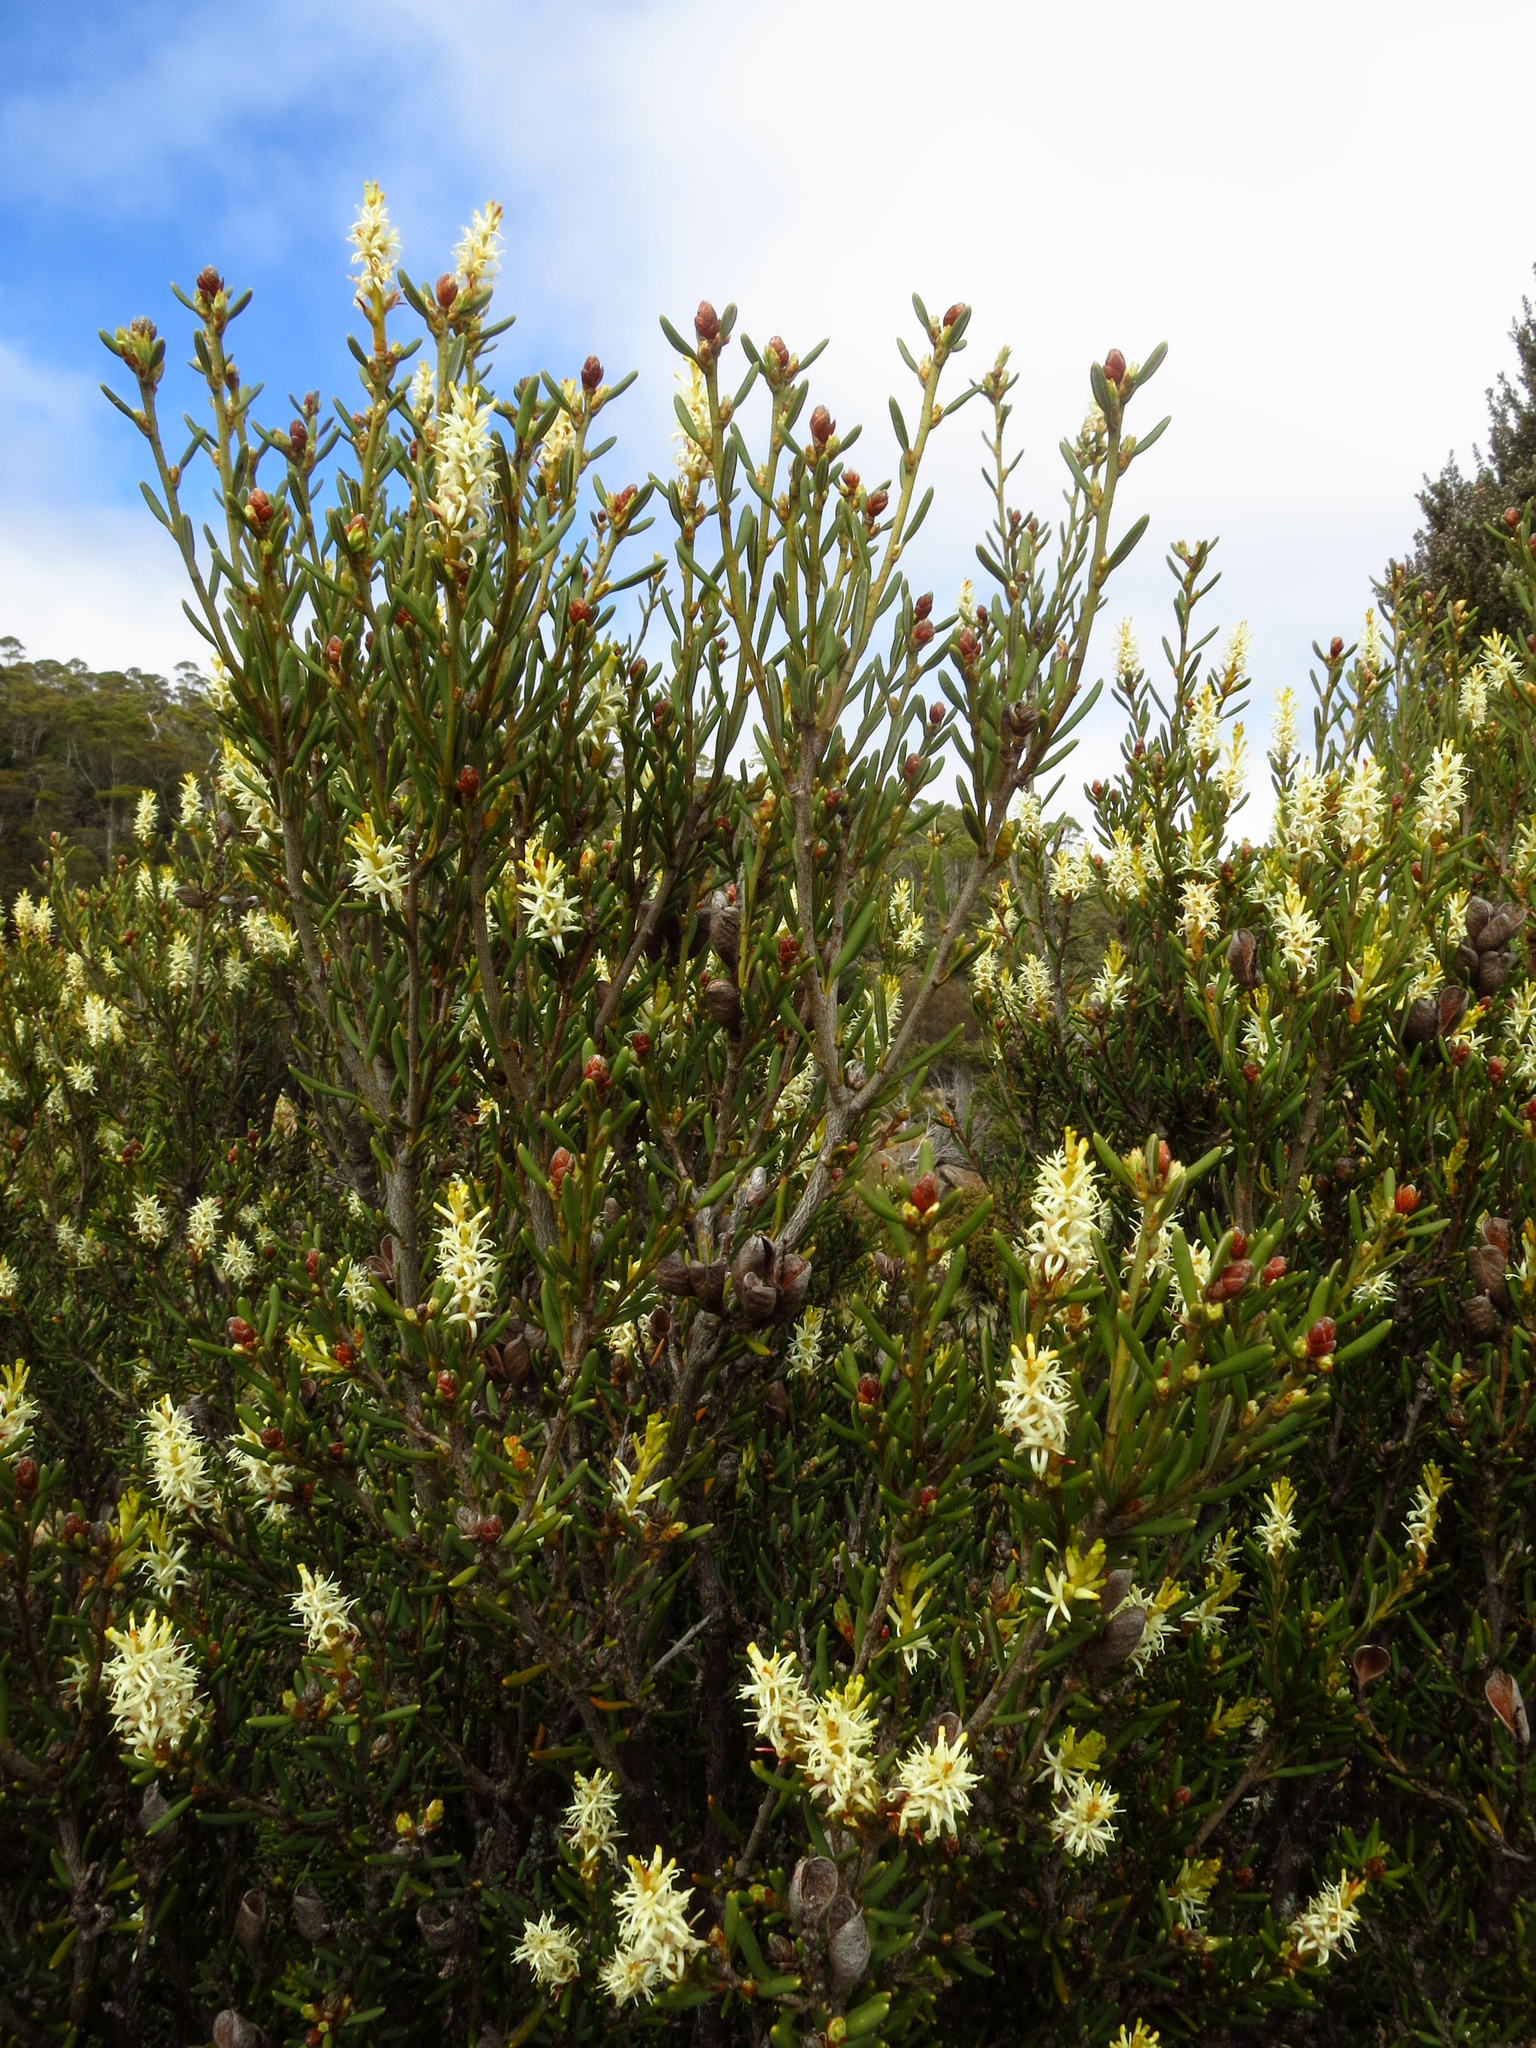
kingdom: Plantae
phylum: Tracheophyta
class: Magnoliopsida
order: Proteales
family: Proteaceae
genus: Orites
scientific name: Orites revolutus
